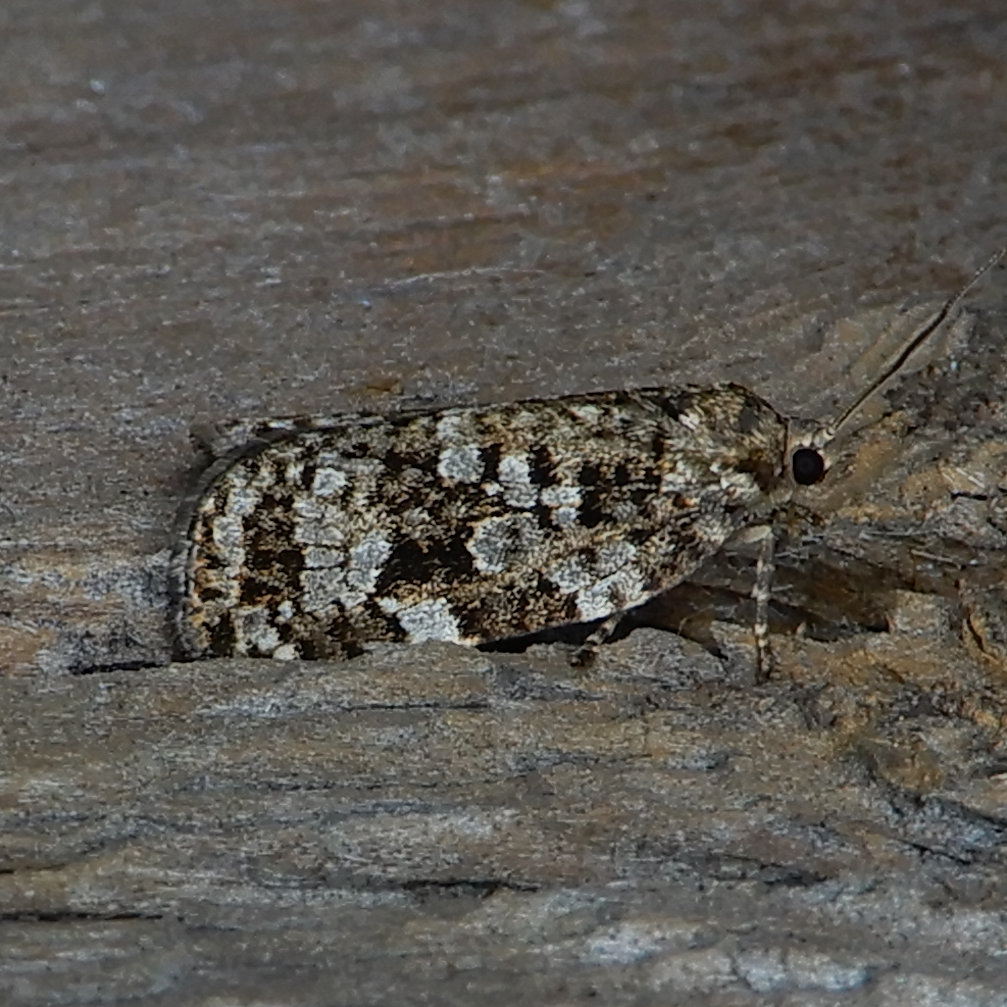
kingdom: Animalia
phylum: Arthropoda
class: Insecta
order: Lepidoptera
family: Tortricidae
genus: Choristoneura
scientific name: Choristoneura fumiferana
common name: Spruce budworm
